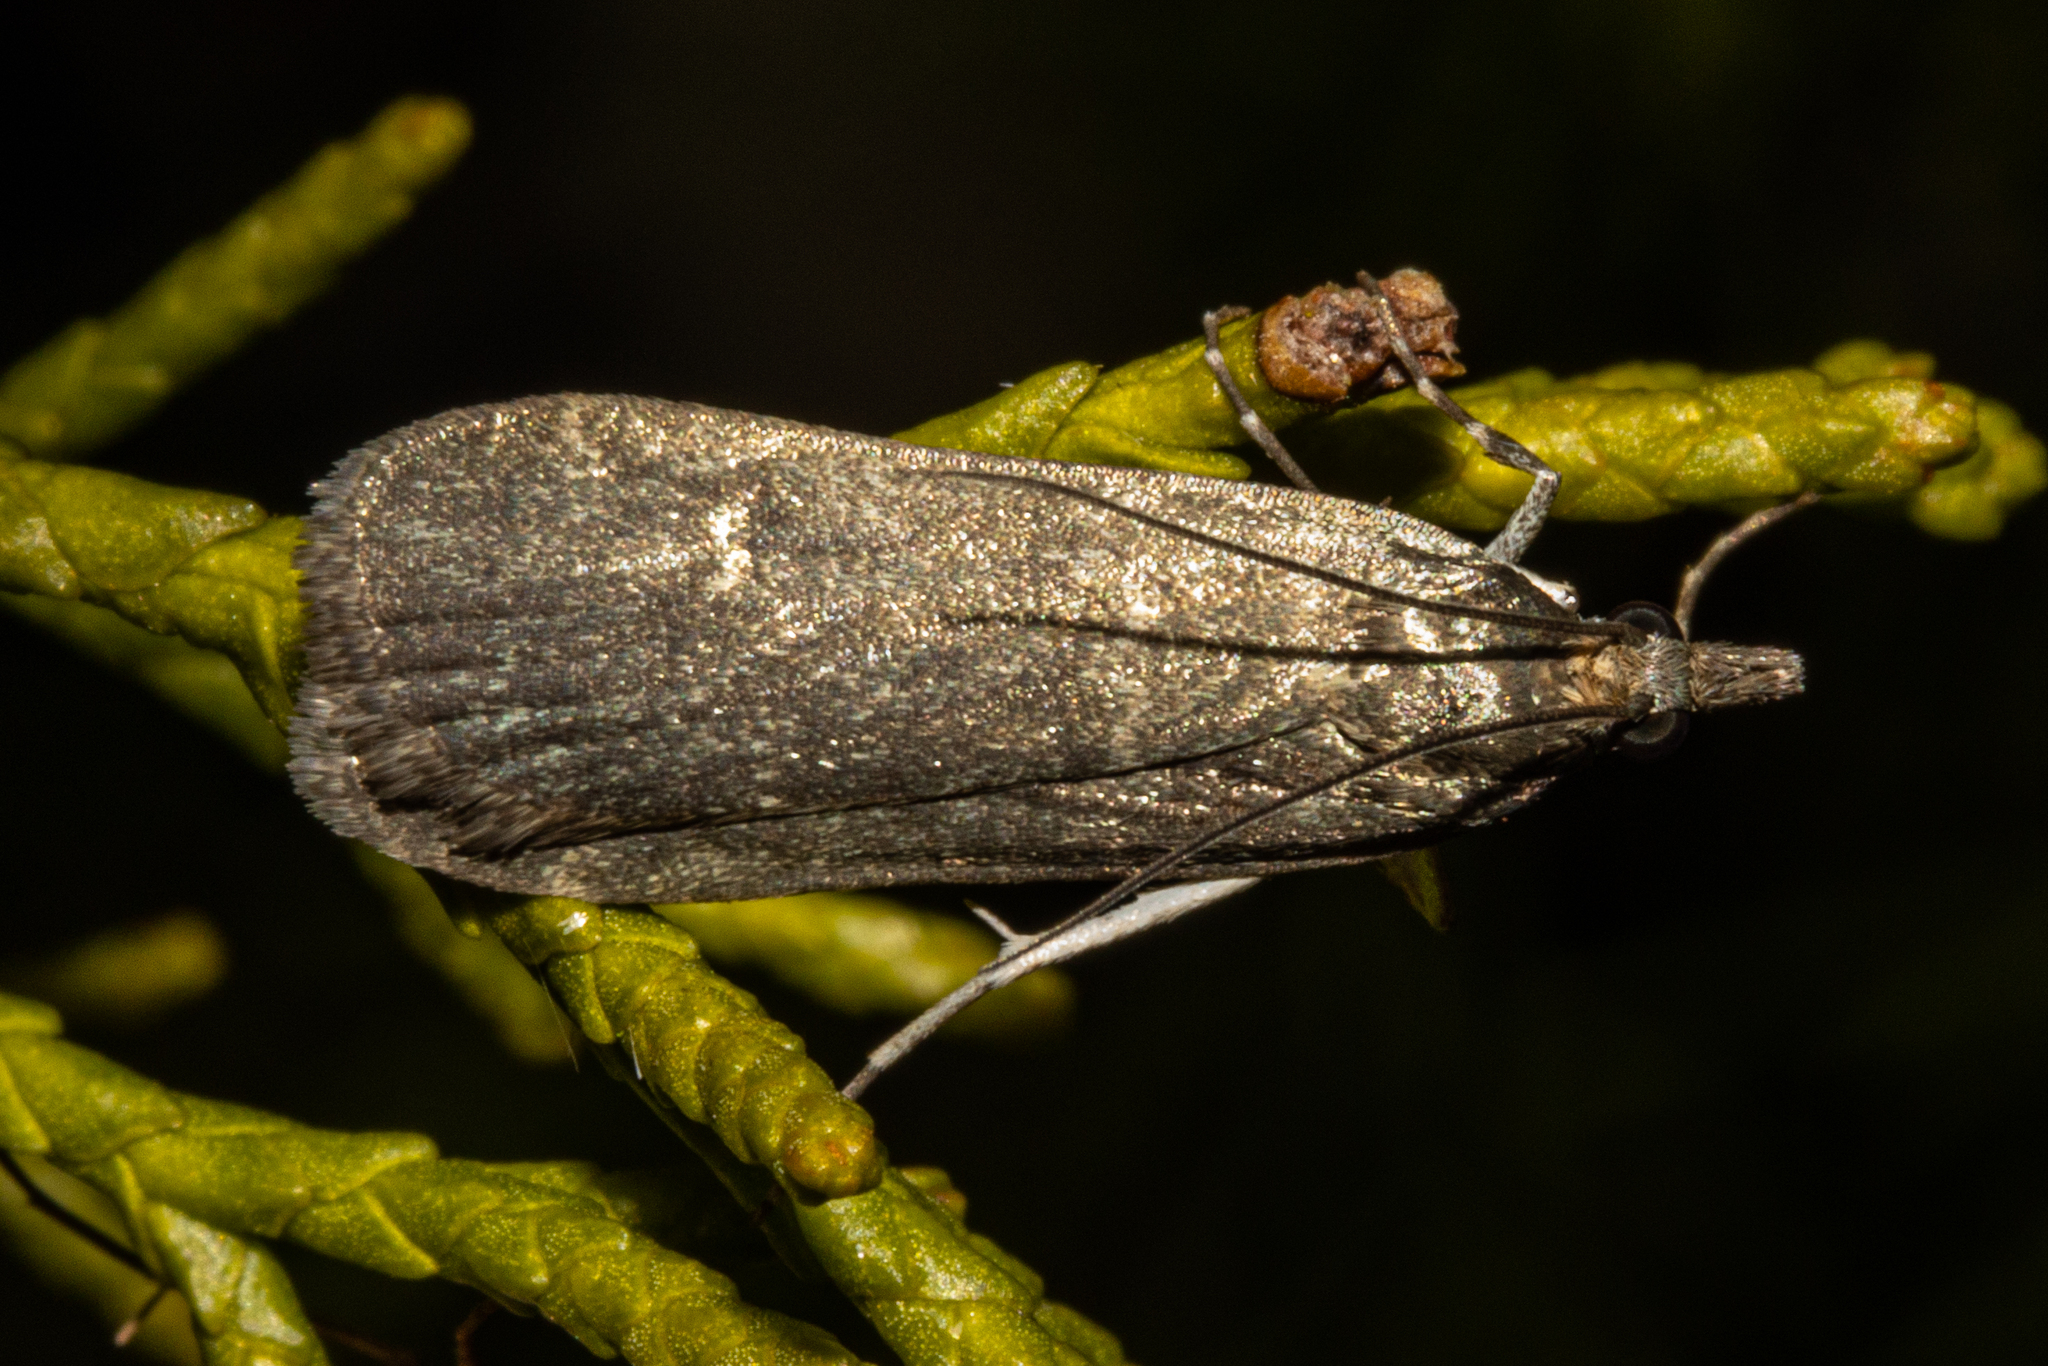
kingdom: Animalia
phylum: Arthropoda
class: Insecta
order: Lepidoptera
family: Crambidae
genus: Eudonia
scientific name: Eudonia cataxesta
